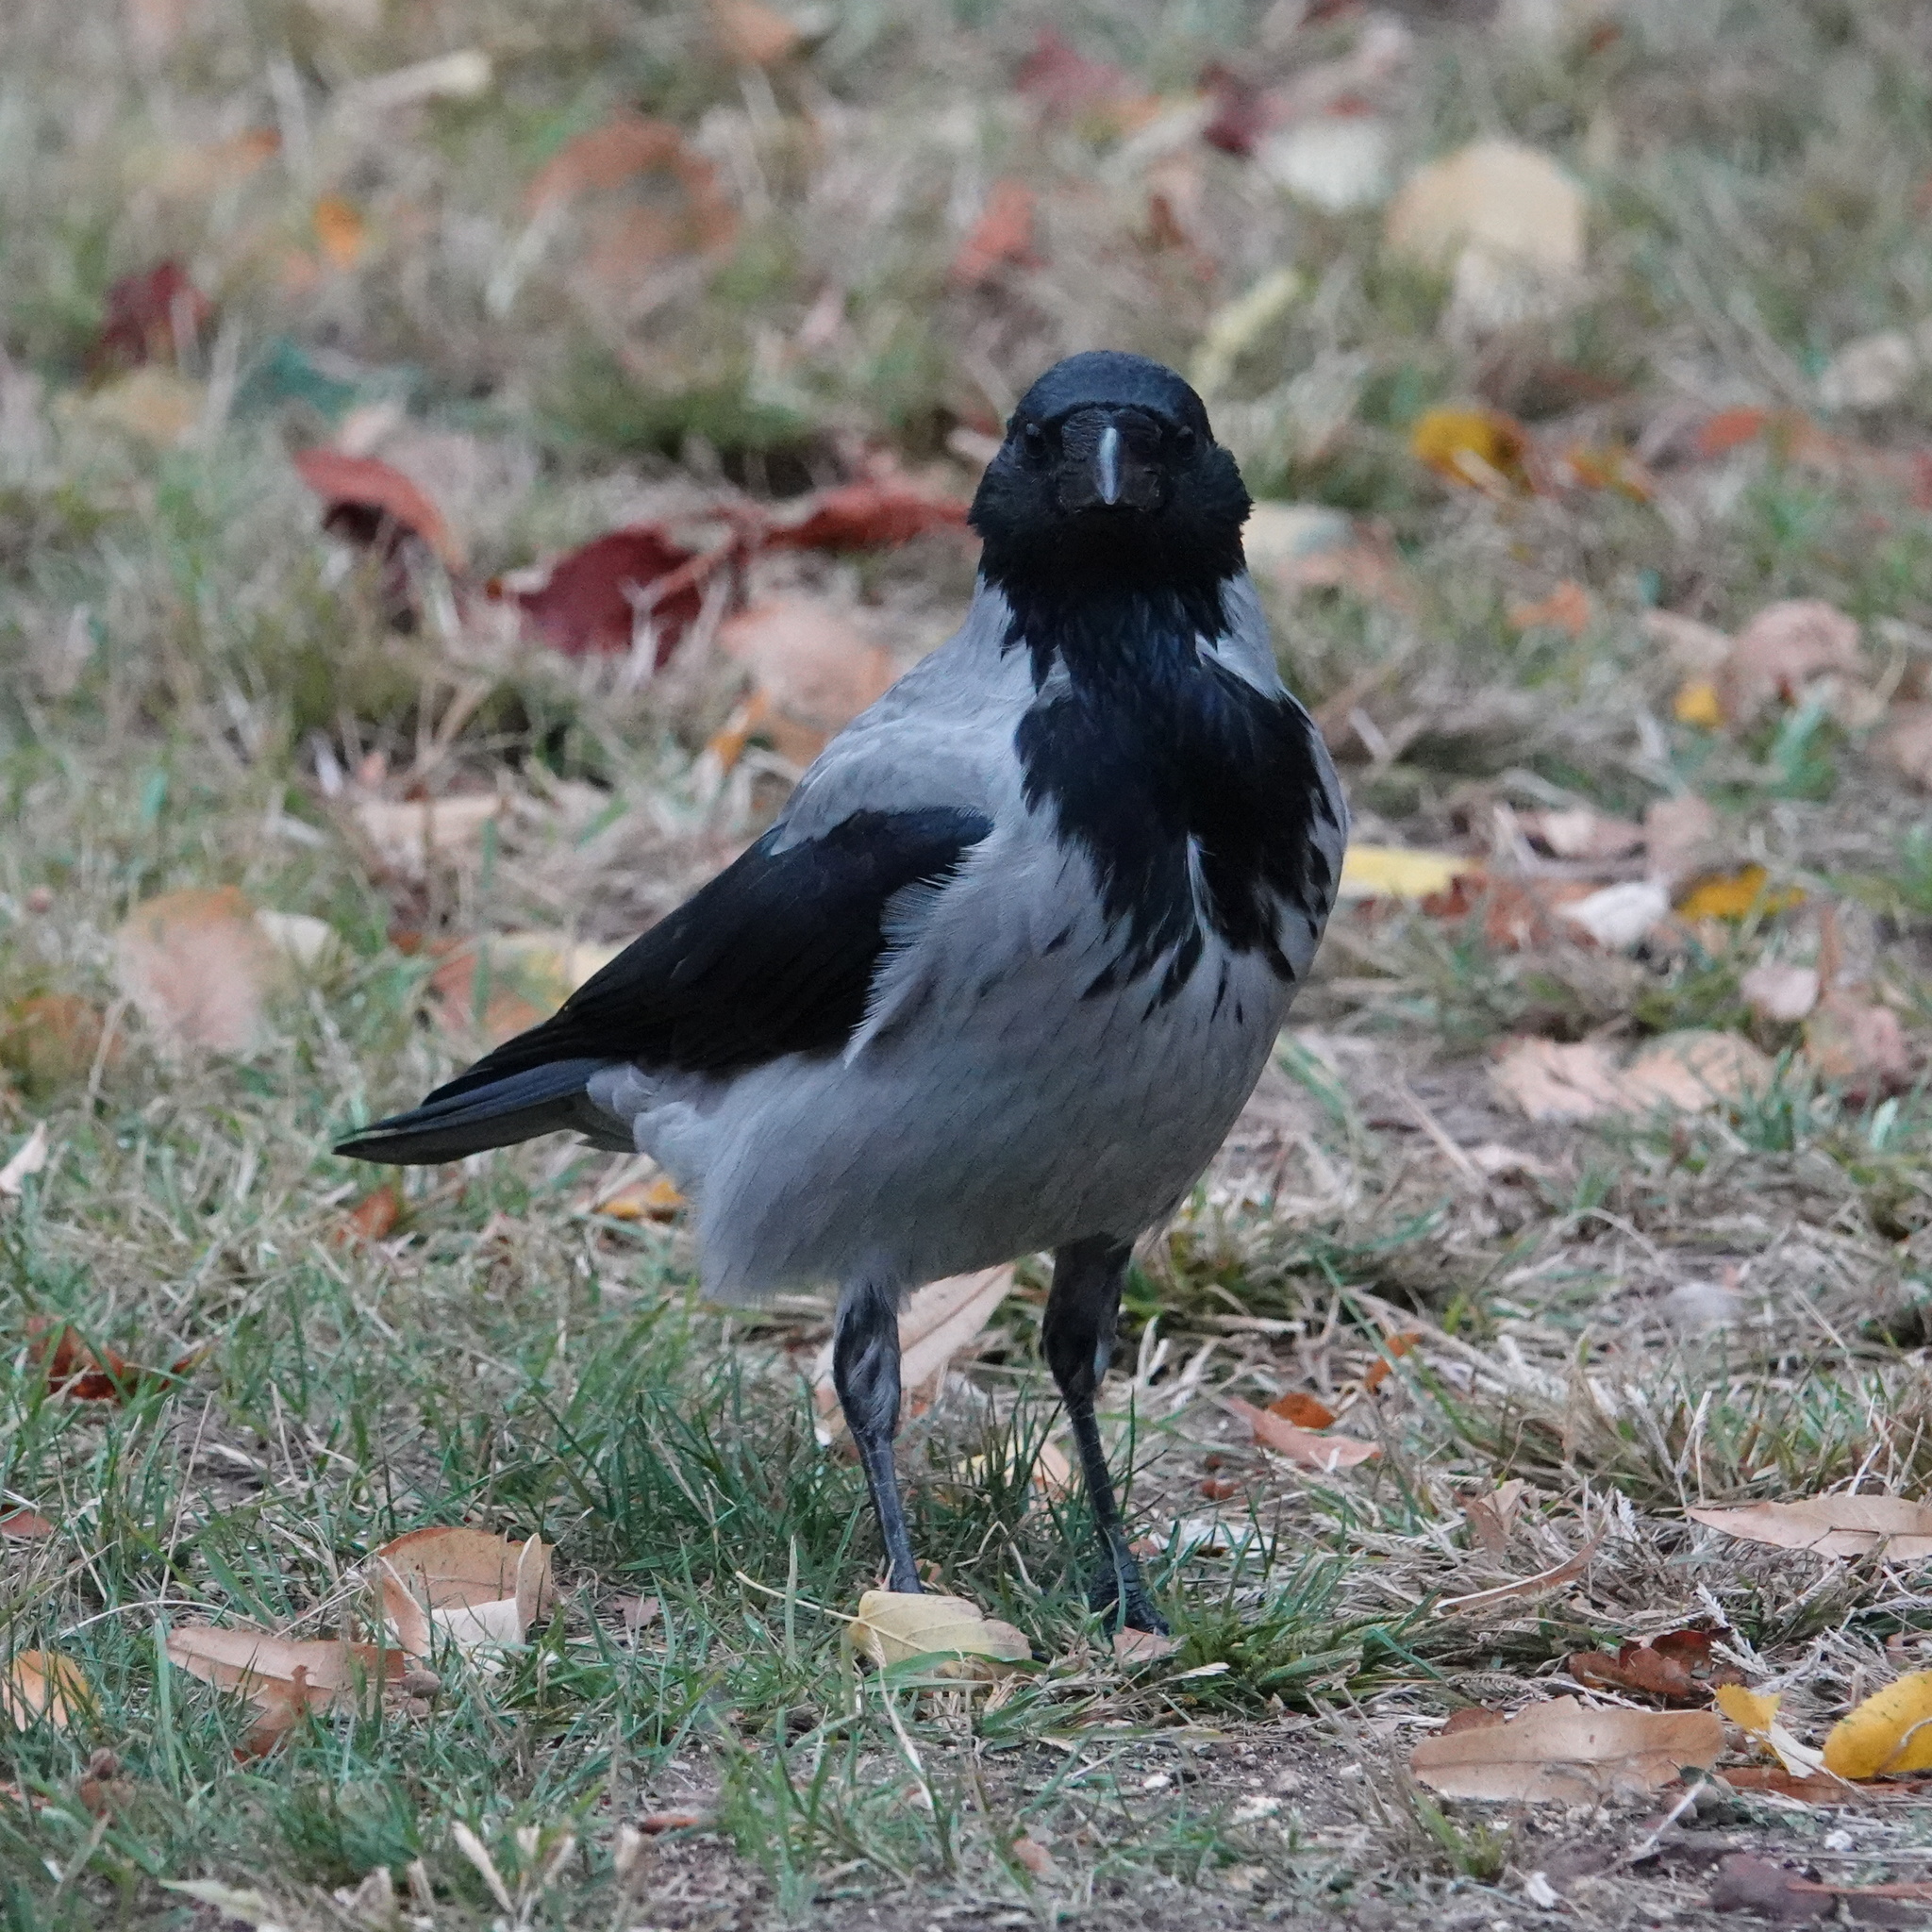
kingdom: Animalia
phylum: Chordata
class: Aves
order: Passeriformes
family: Corvidae
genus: Corvus
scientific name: Corvus cornix
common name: Hooded crow
